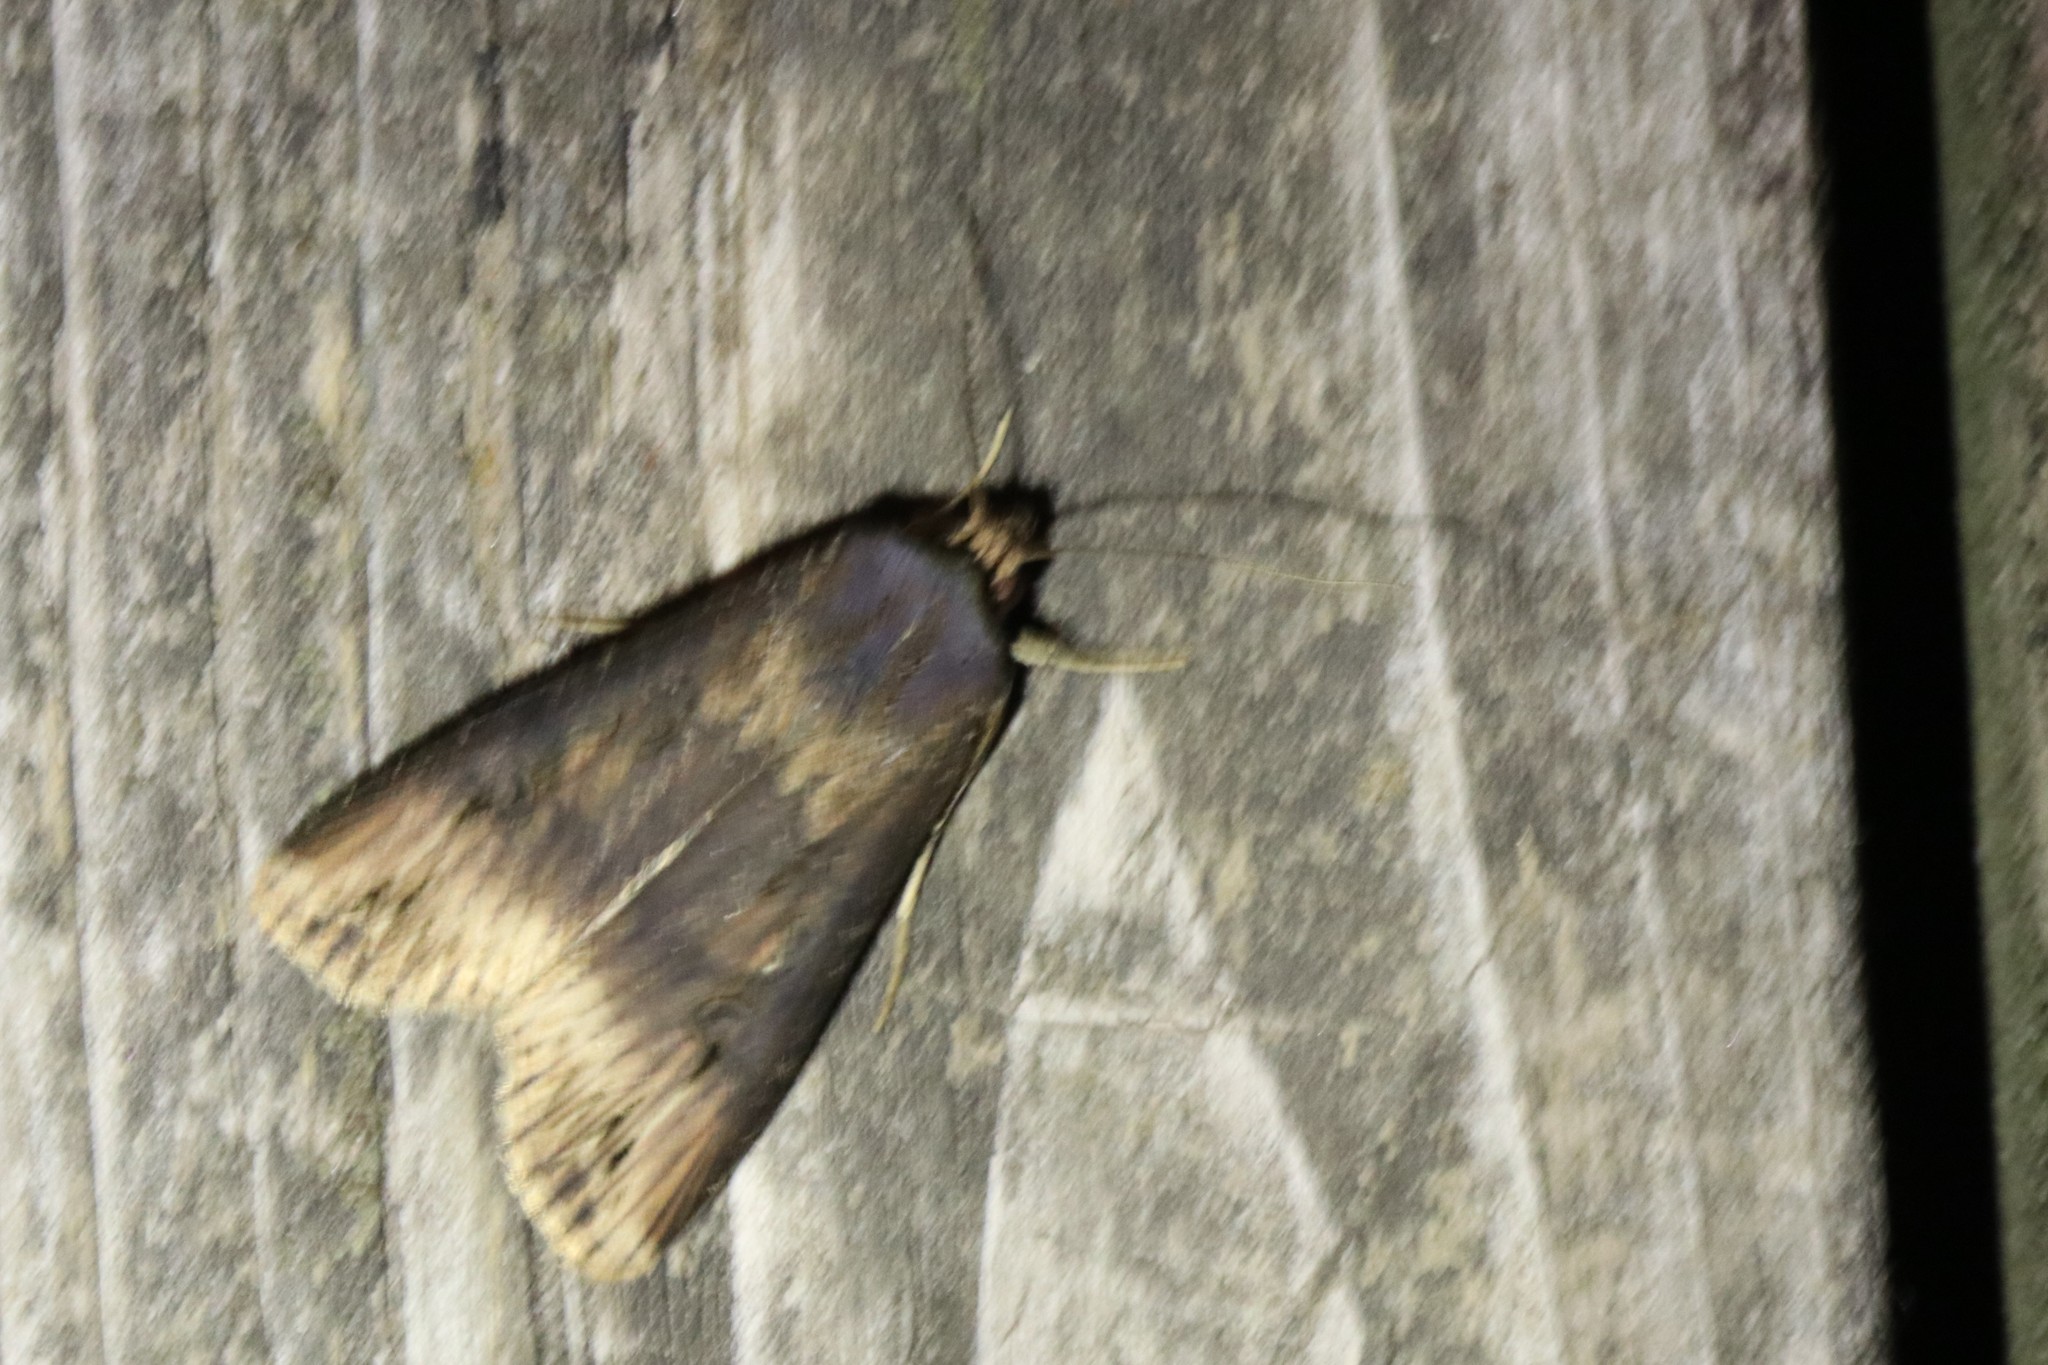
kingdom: Animalia
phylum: Arthropoda
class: Insecta
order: Lepidoptera
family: Noctuidae
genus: Agrotis
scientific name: Agrotis ipsilon
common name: Dark sword-grass
